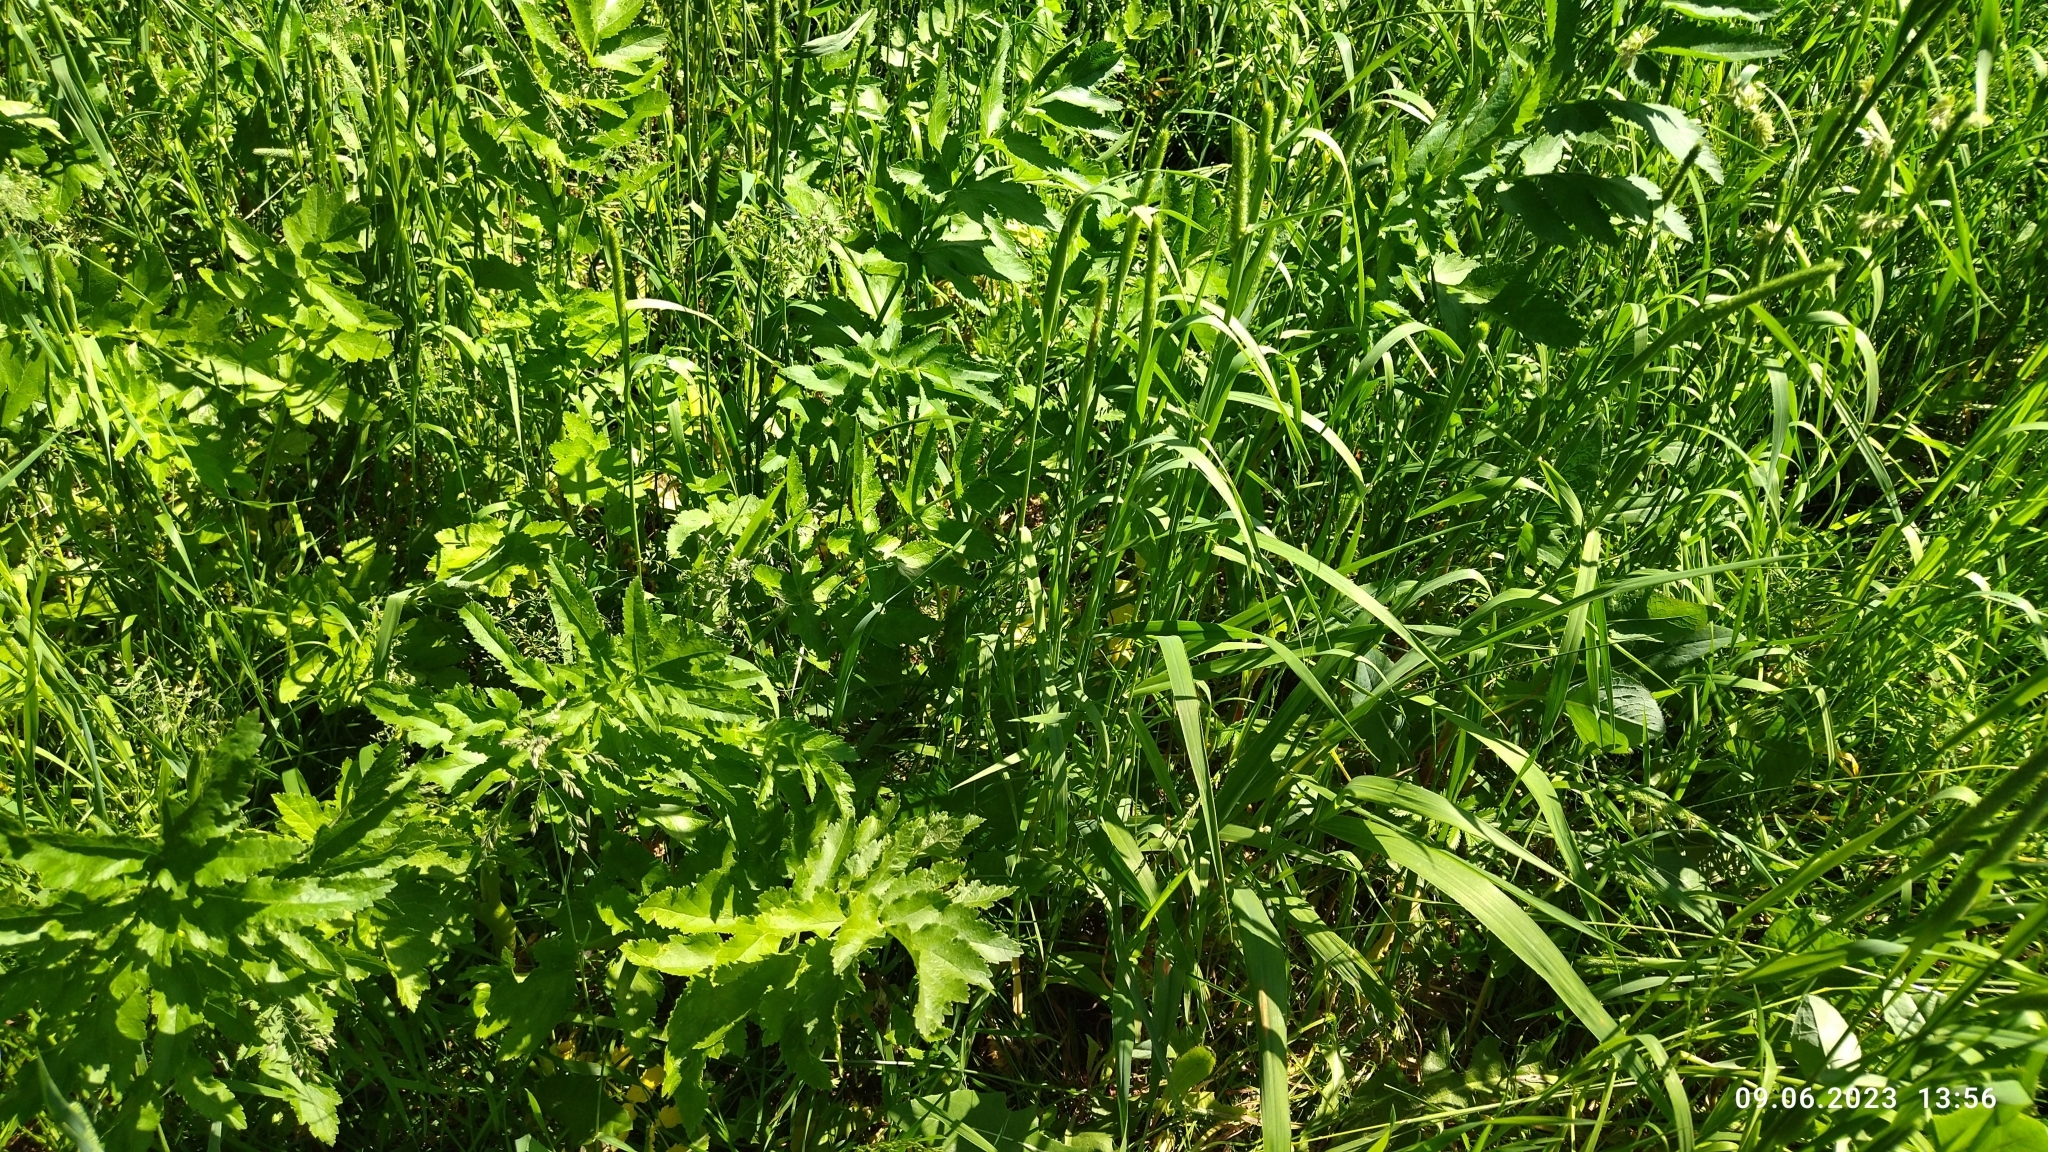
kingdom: Plantae
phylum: Tracheophyta
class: Magnoliopsida
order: Apiales
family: Apiaceae
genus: Pastinaca
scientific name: Pastinaca sativa
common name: Wild parsnip
